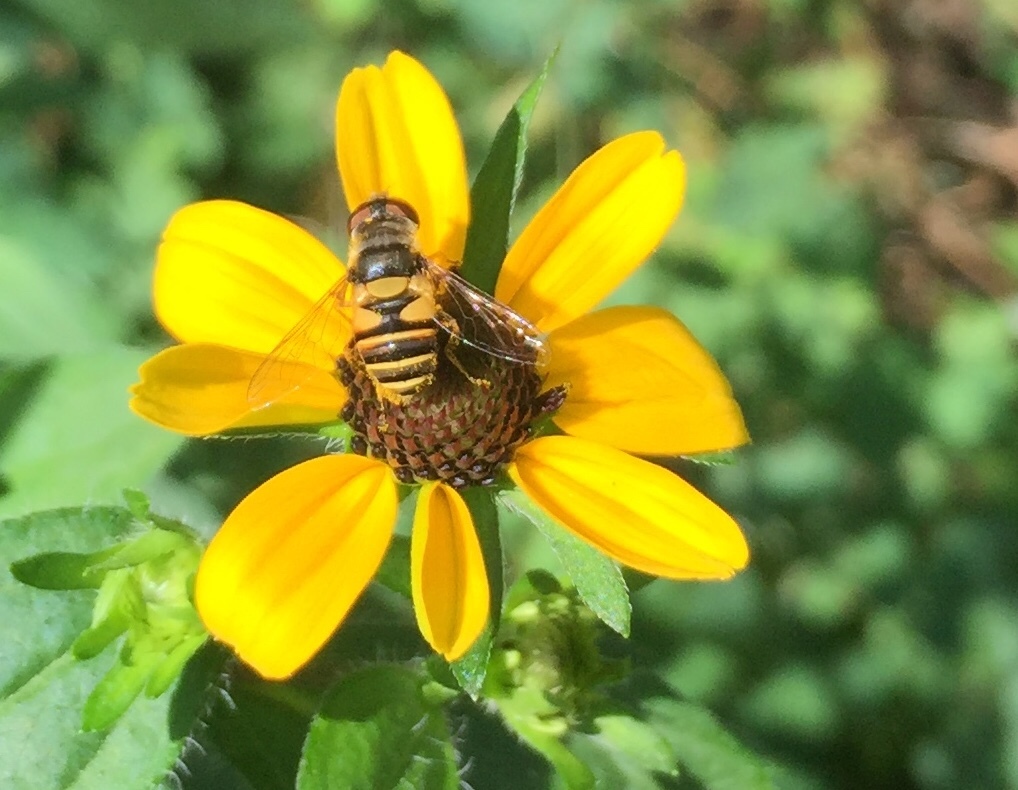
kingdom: Animalia
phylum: Arthropoda
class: Insecta
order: Diptera
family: Syrphidae
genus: Eristalis
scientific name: Eristalis transversa
